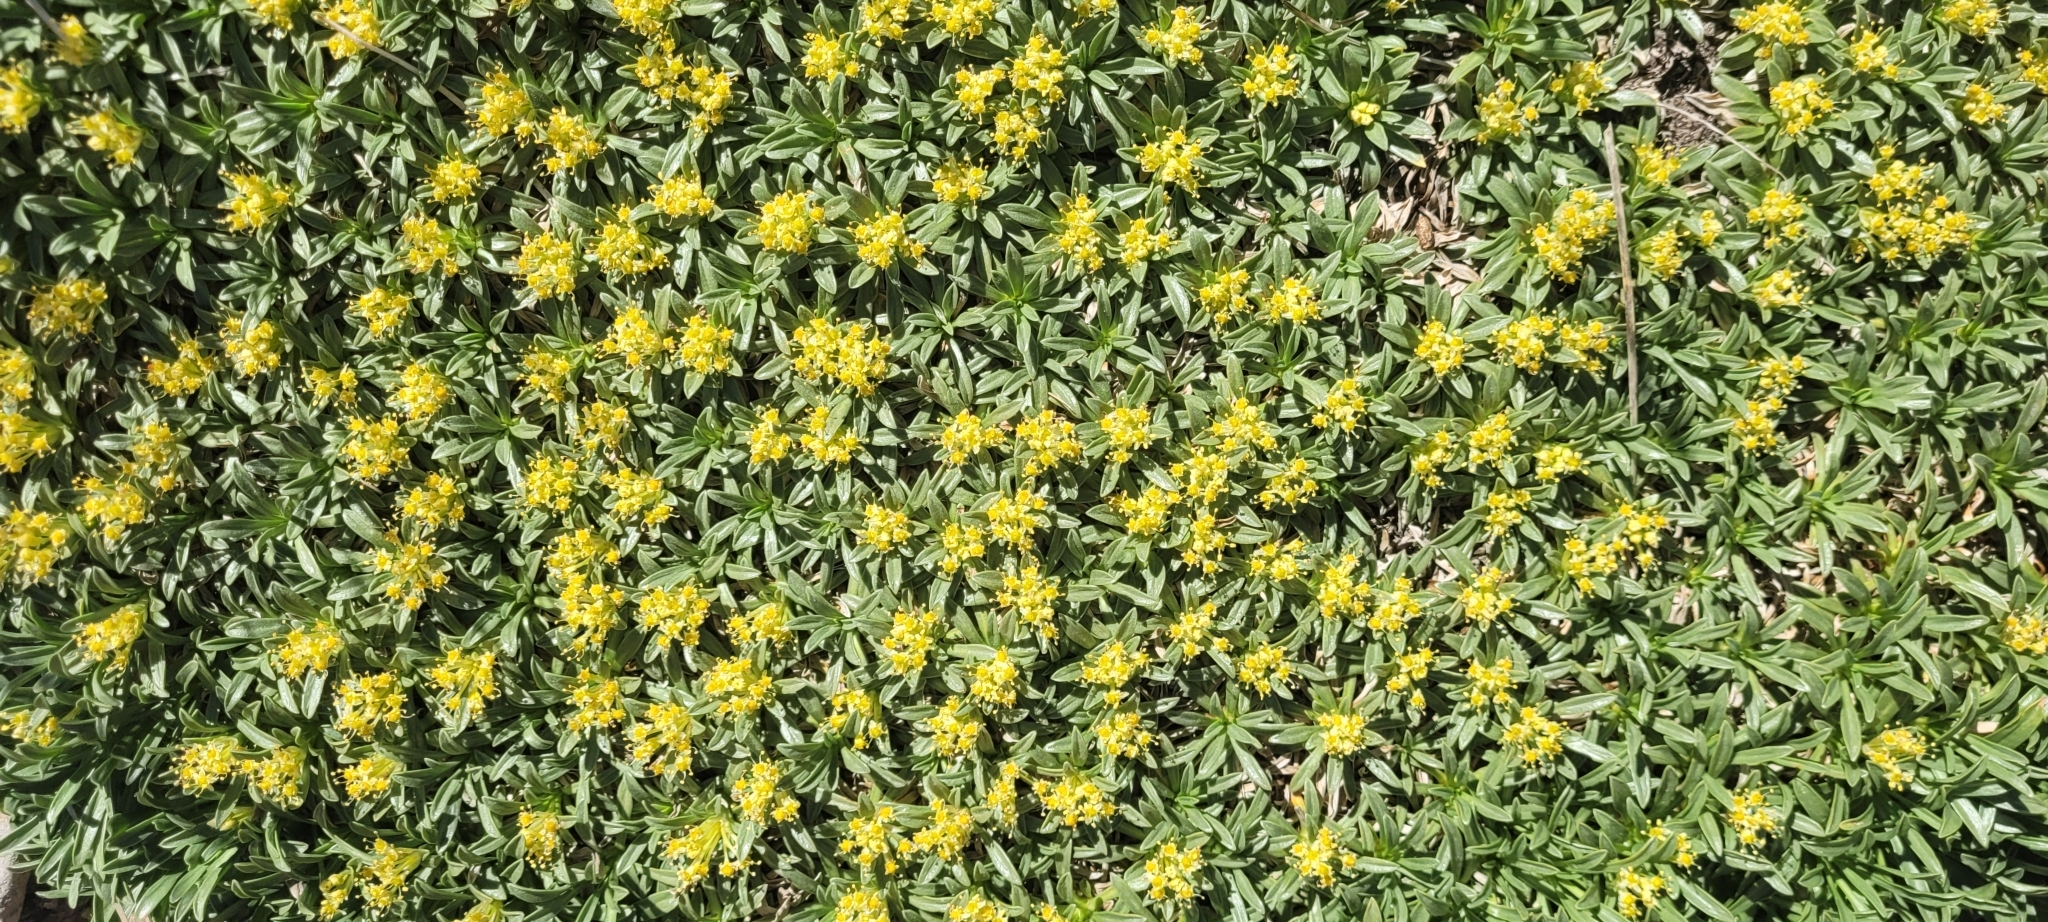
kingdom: Plantae
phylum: Tracheophyta
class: Magnoliopsida
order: Apiales
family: Apiaceae
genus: Azorella
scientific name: Azorella ruizii
